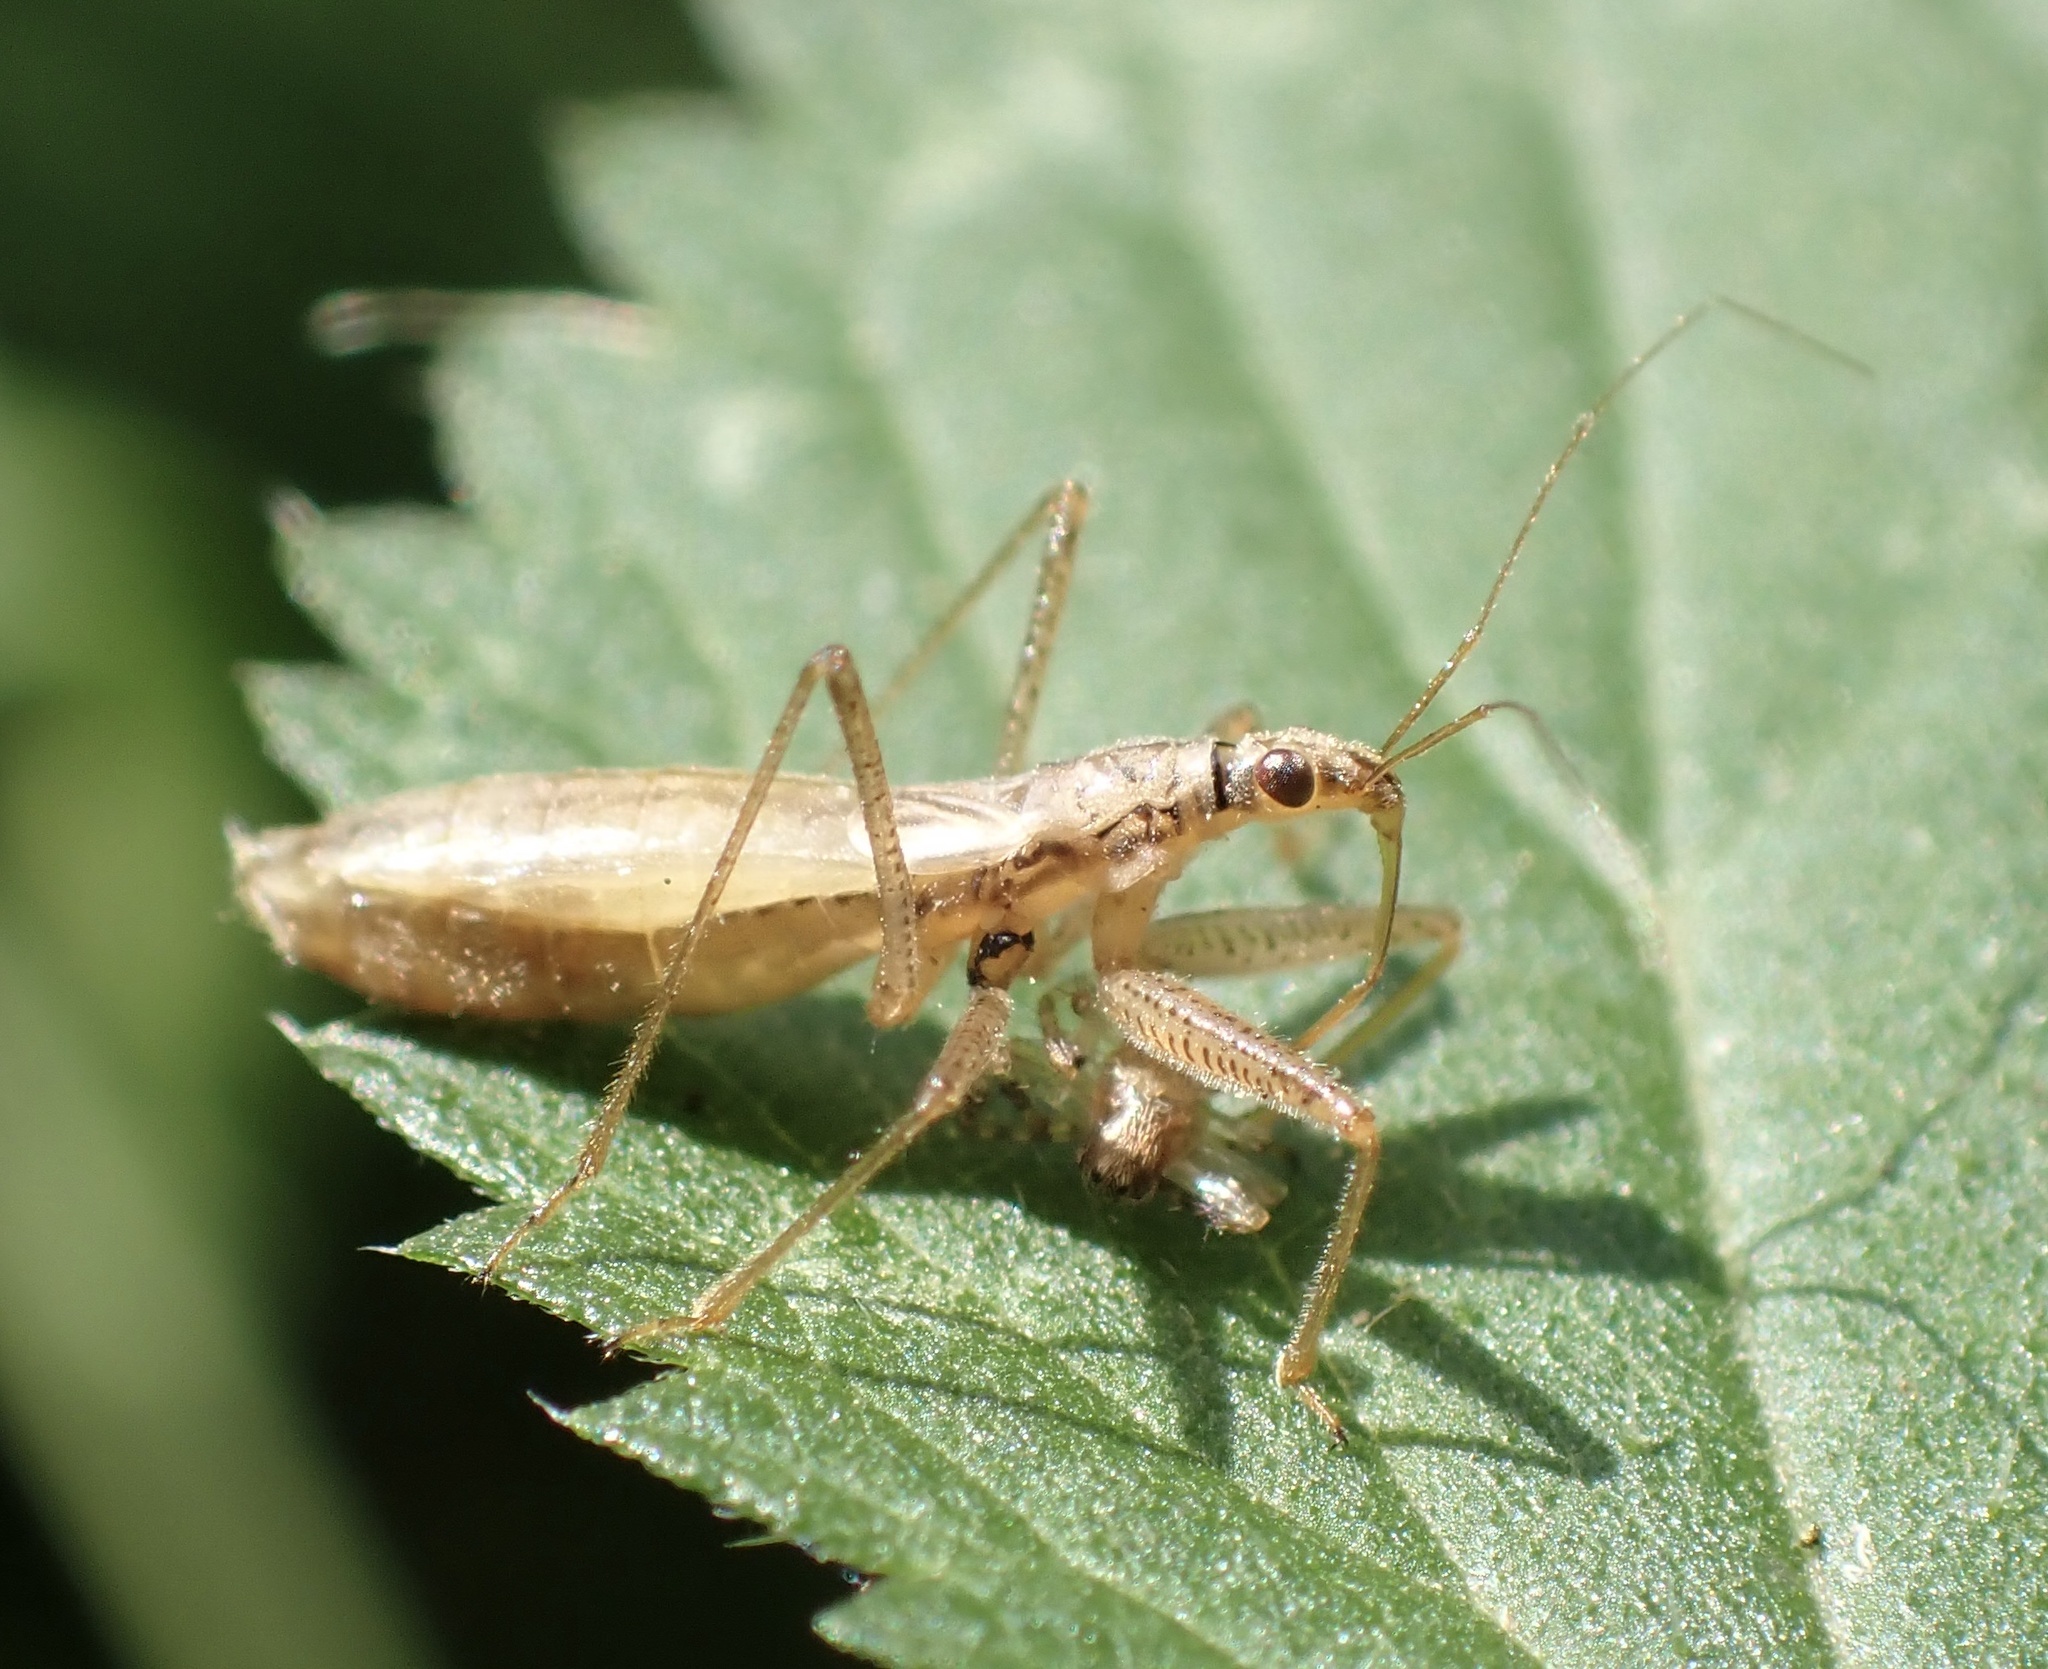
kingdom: Animalia
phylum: Arthropoda
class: Insecta
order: Hemiptera
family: Nabidae
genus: Nabis
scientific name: Nabis limbatus
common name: Marsh damselbug
